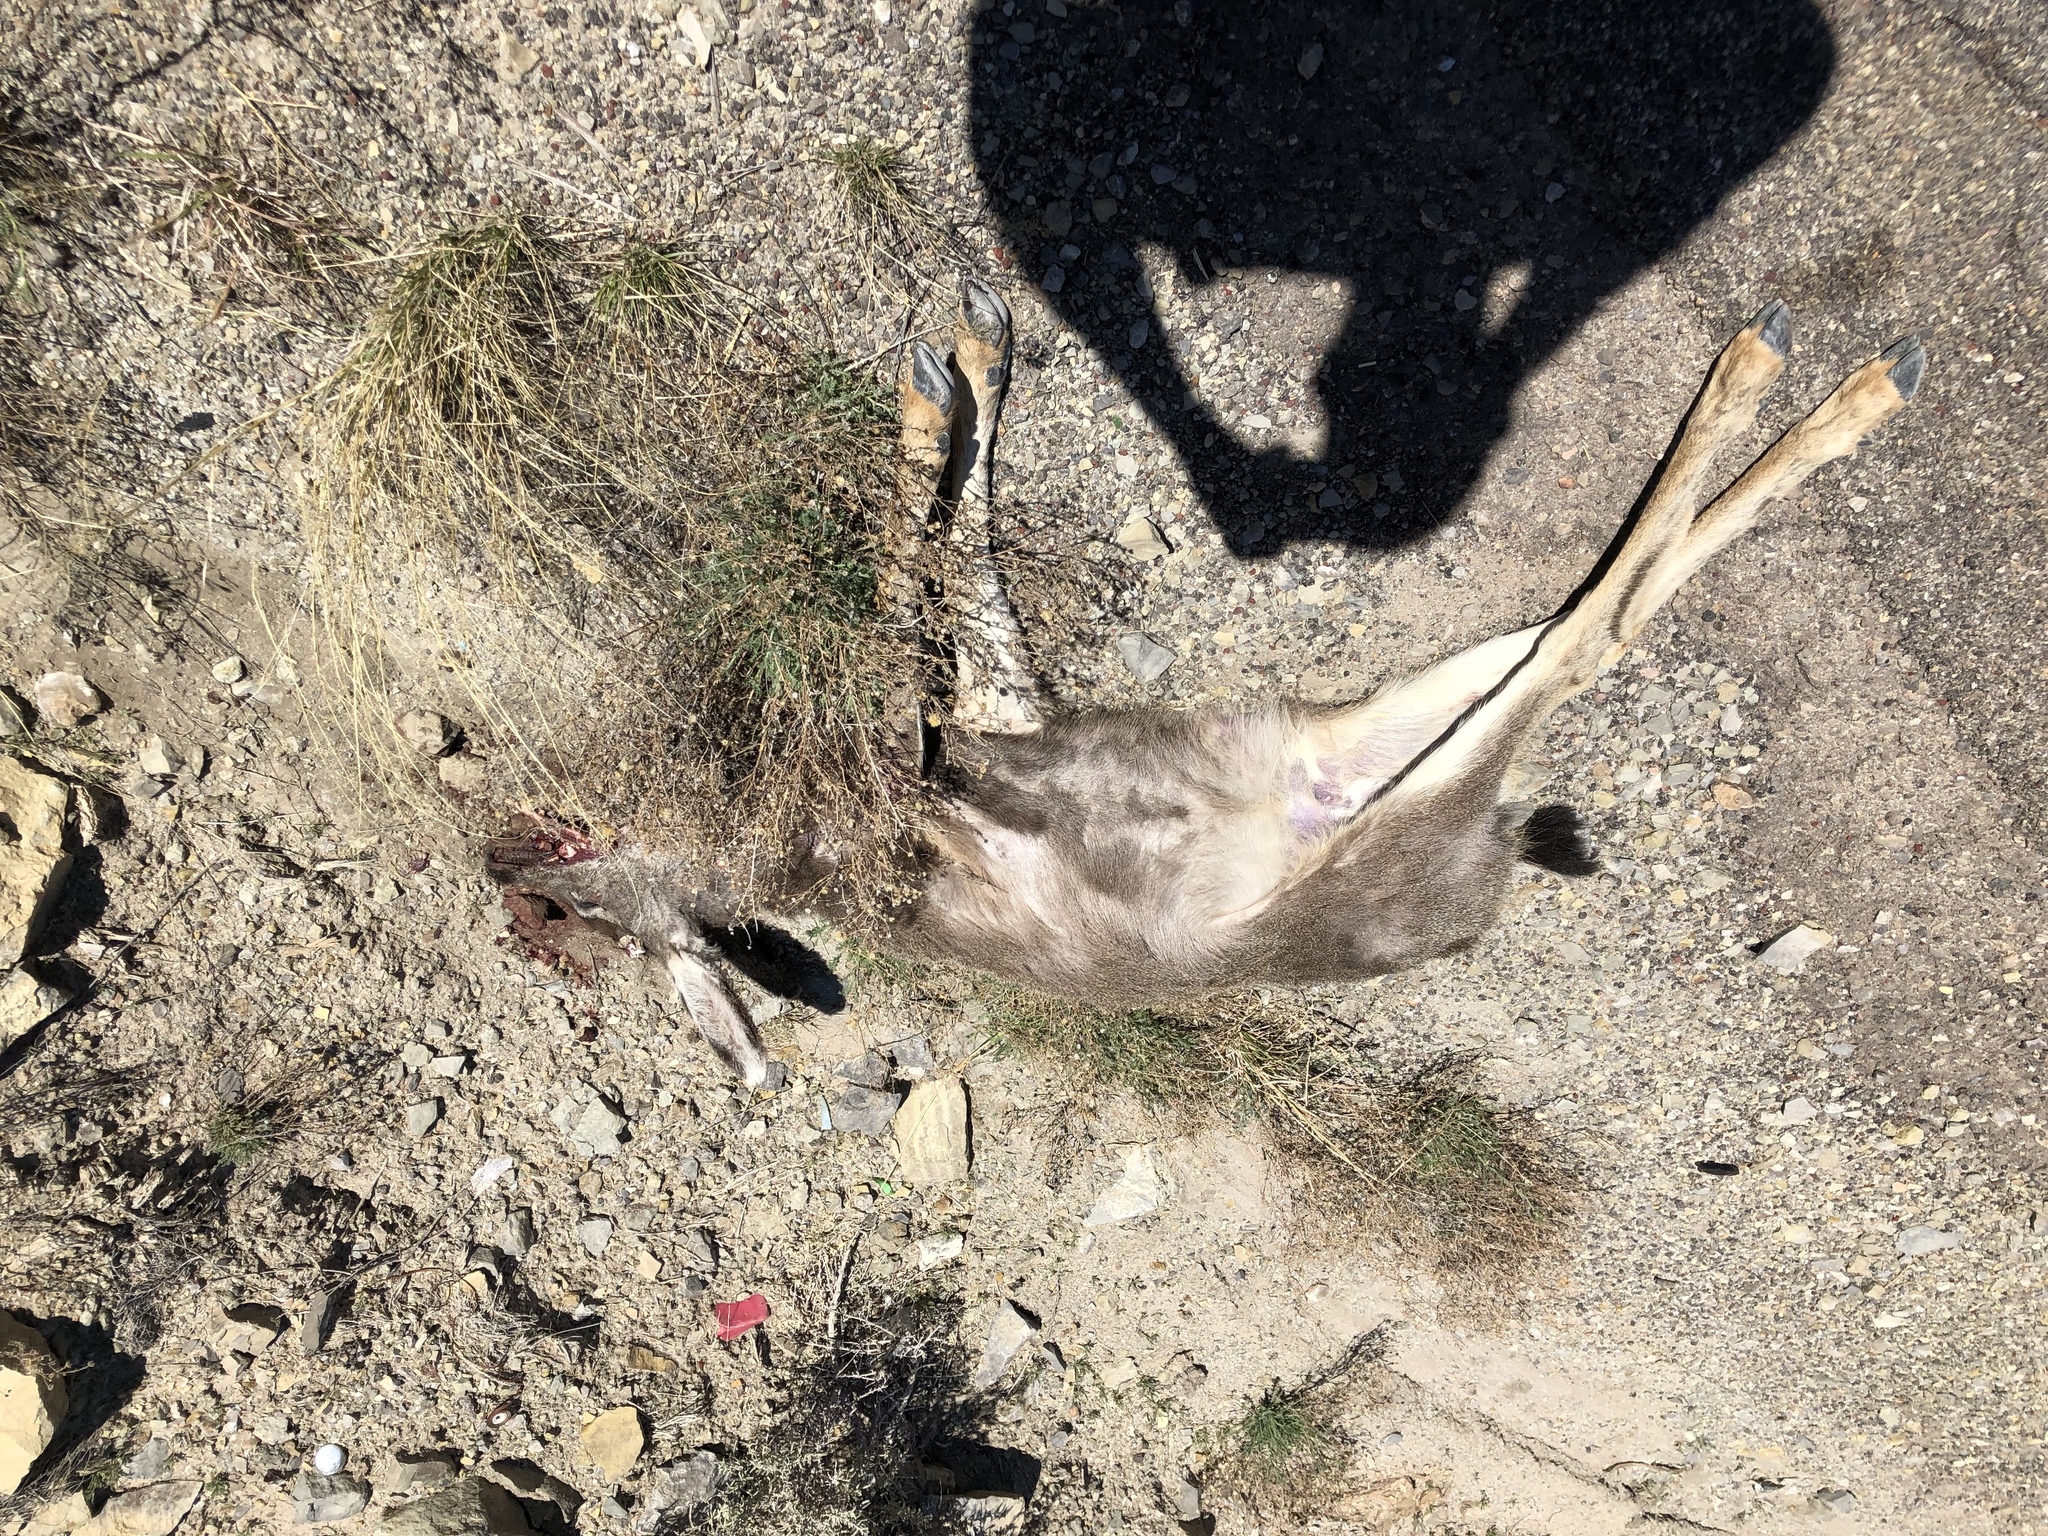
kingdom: Animalia
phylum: Chordata
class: Mammalia
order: Artiodactyla
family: Cervidae
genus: Odocoileus
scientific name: Odocoileus hemionus
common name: Mule deer
